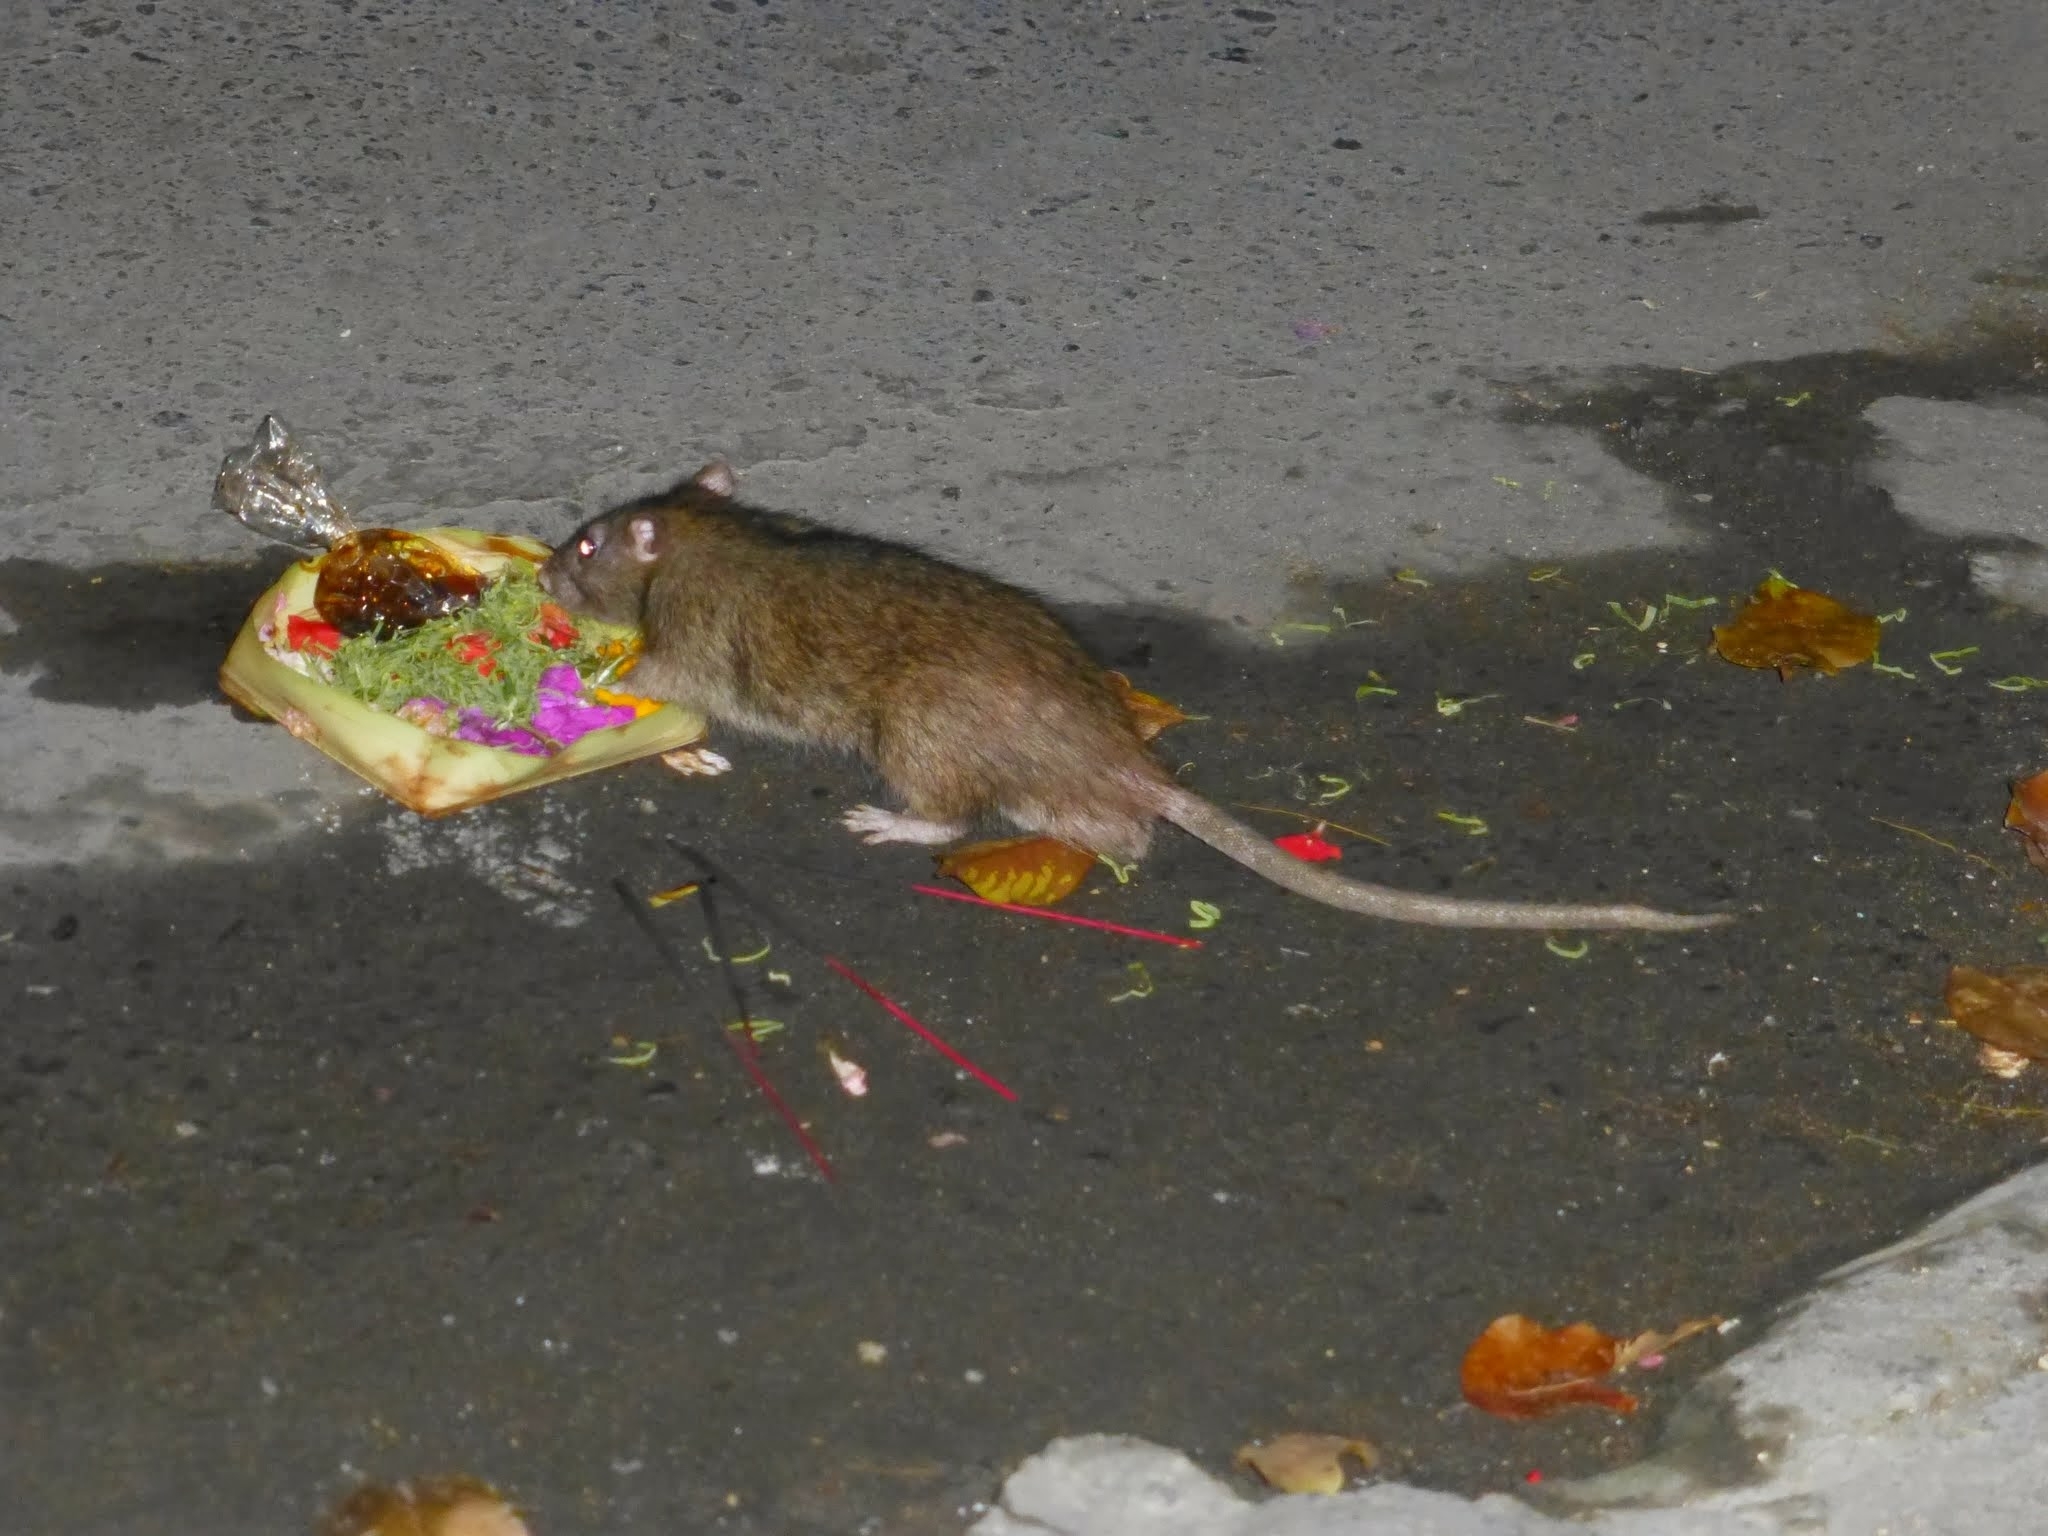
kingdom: Animalia
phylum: Chordata
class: Mammalia
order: Rodentia
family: Muridae
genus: Rattus
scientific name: Rattus norvegicus
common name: Brown rat
